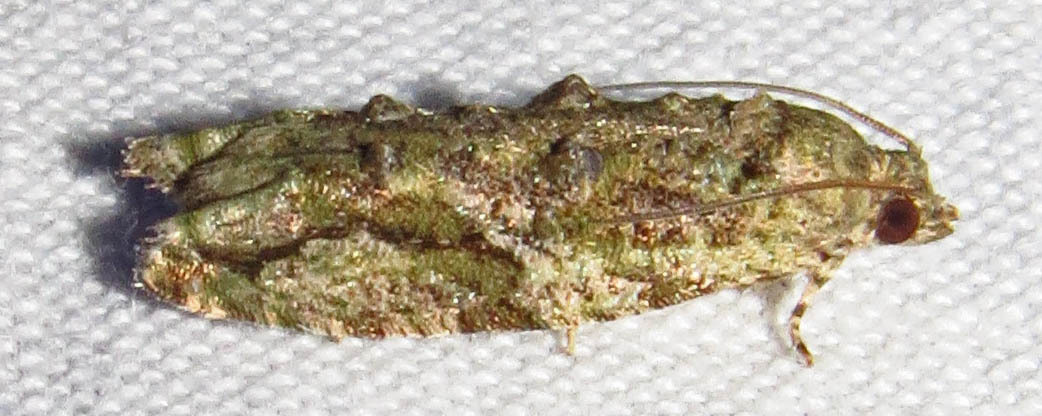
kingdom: Animalia
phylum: Arthropoda
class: Insecta
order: Lepidoptera
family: Tortricidae
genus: Proteoteras
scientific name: Proteoteras aesculana
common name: Maple twig borer moth
